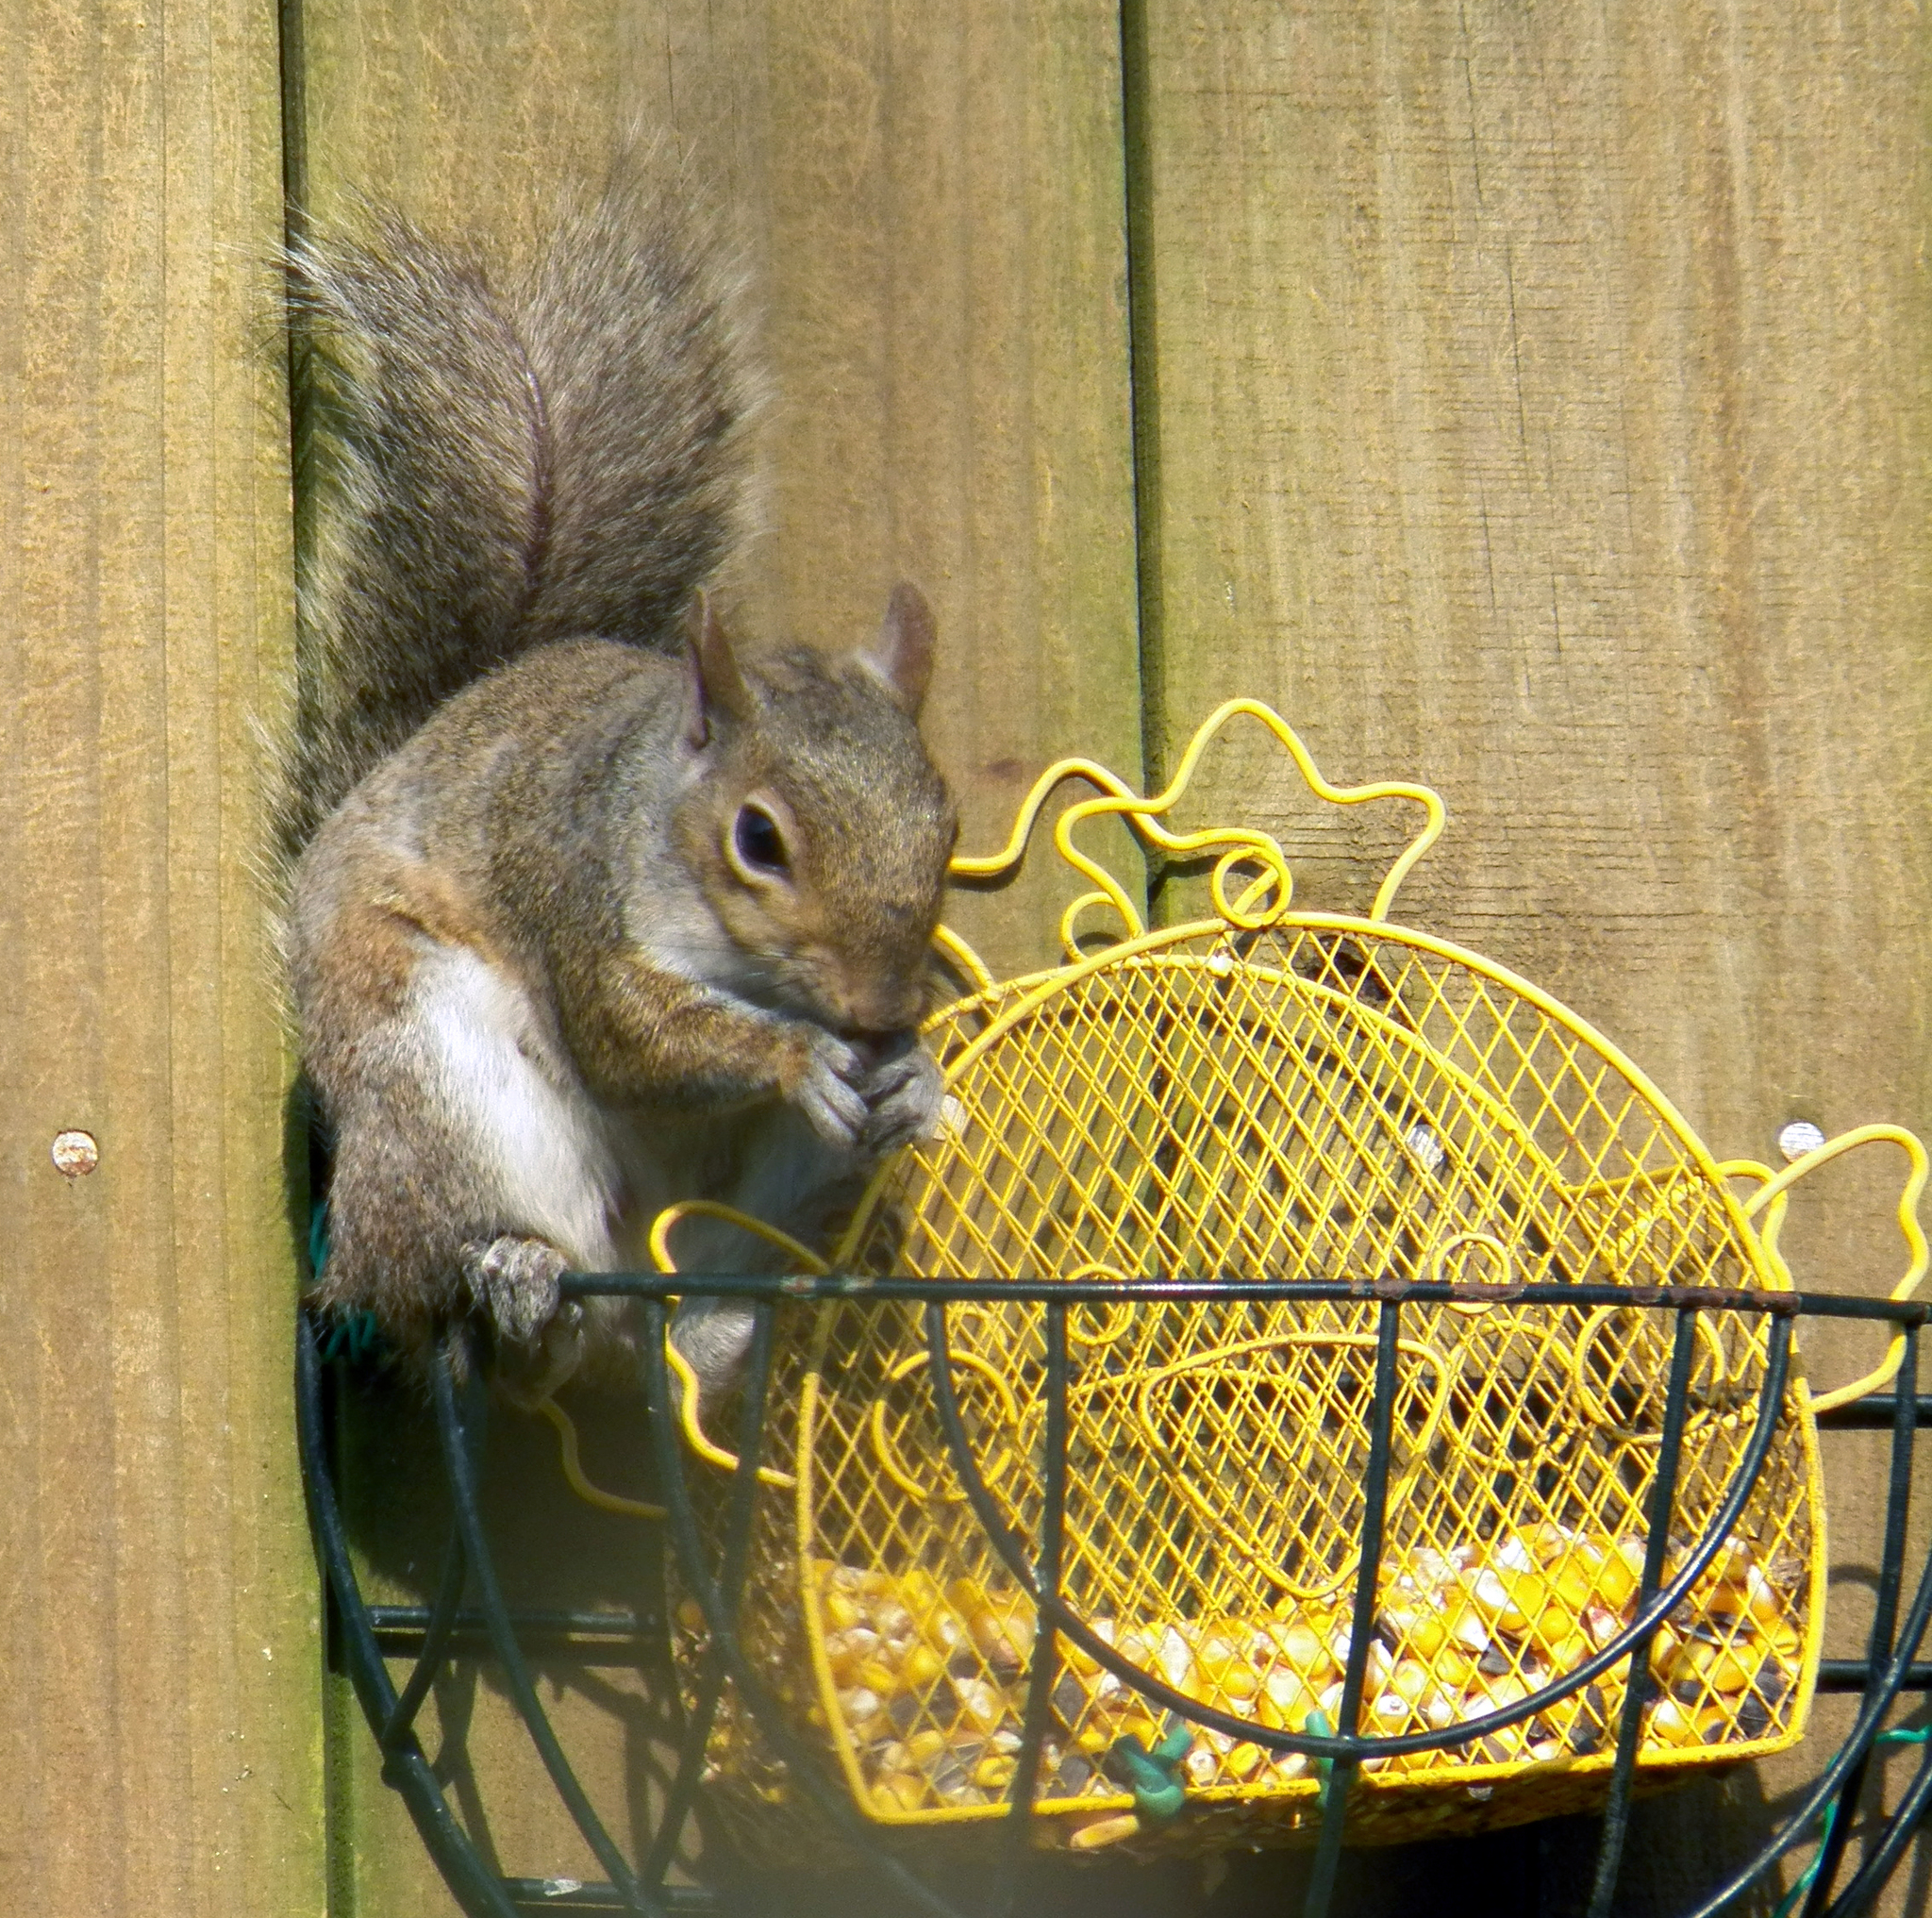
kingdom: Animalia
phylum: Chordata
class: Mammalia
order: Rodentia
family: Sciuridae
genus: Sciurus
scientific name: Sciurus carolinensis
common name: Eastern gray squirrel
